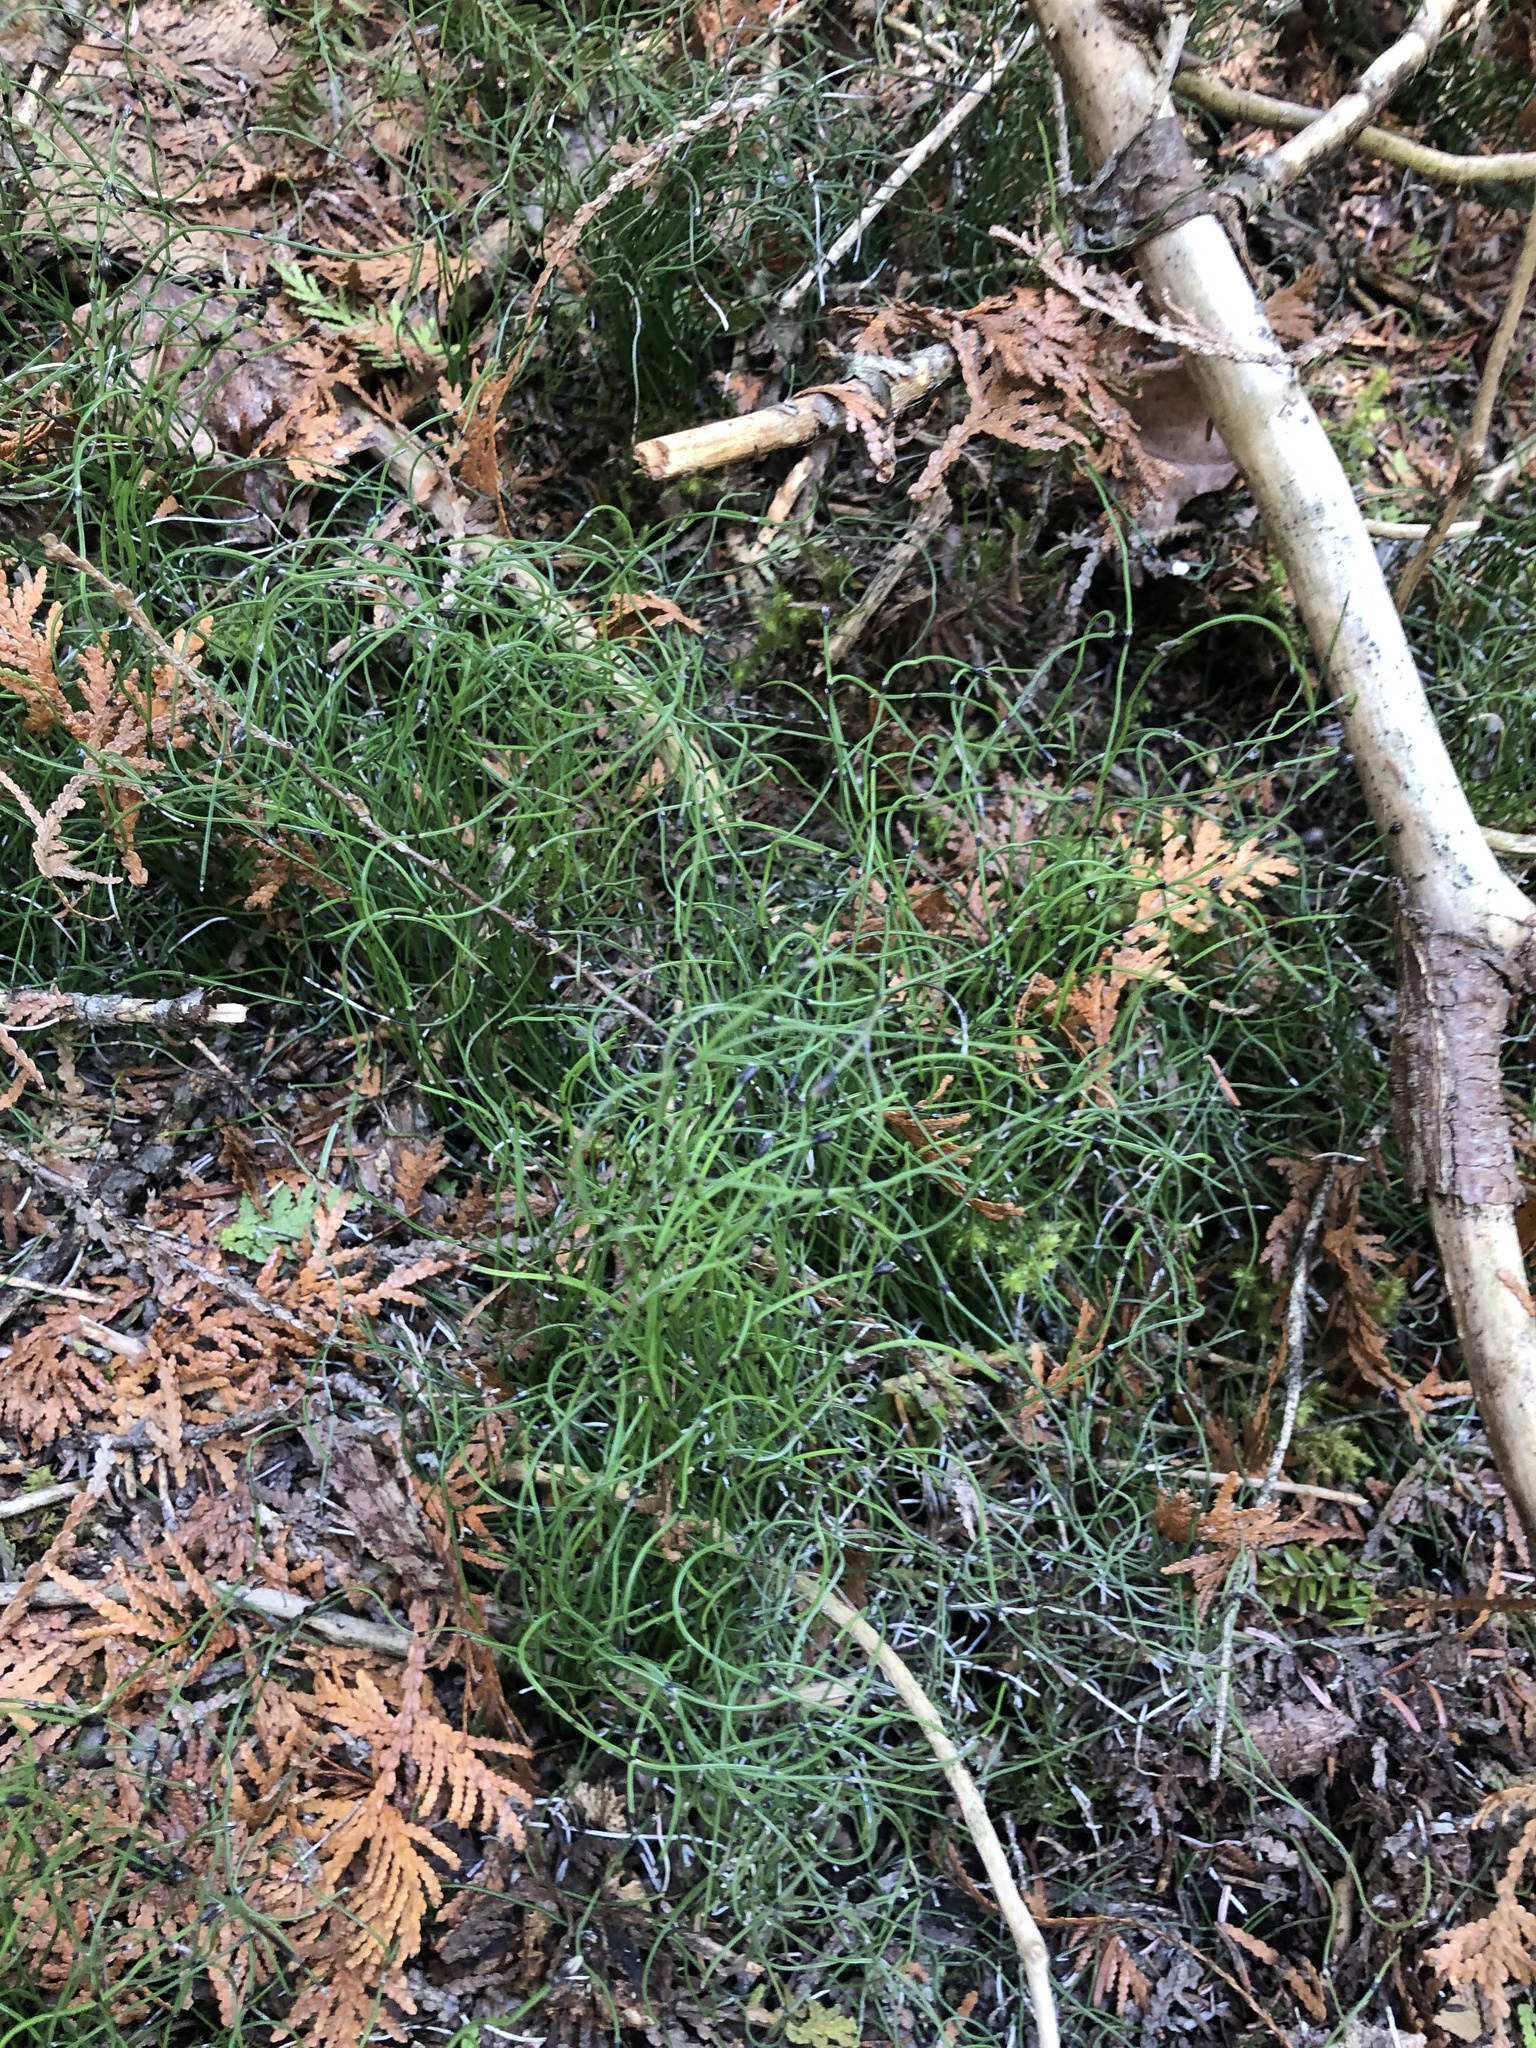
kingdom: Plantae
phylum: Tracheophyta
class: Polypodiopsida
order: Equisetales
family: Equisetaceae
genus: Equisetum
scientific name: Equisetum scirpoides
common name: Delicate horsetail
